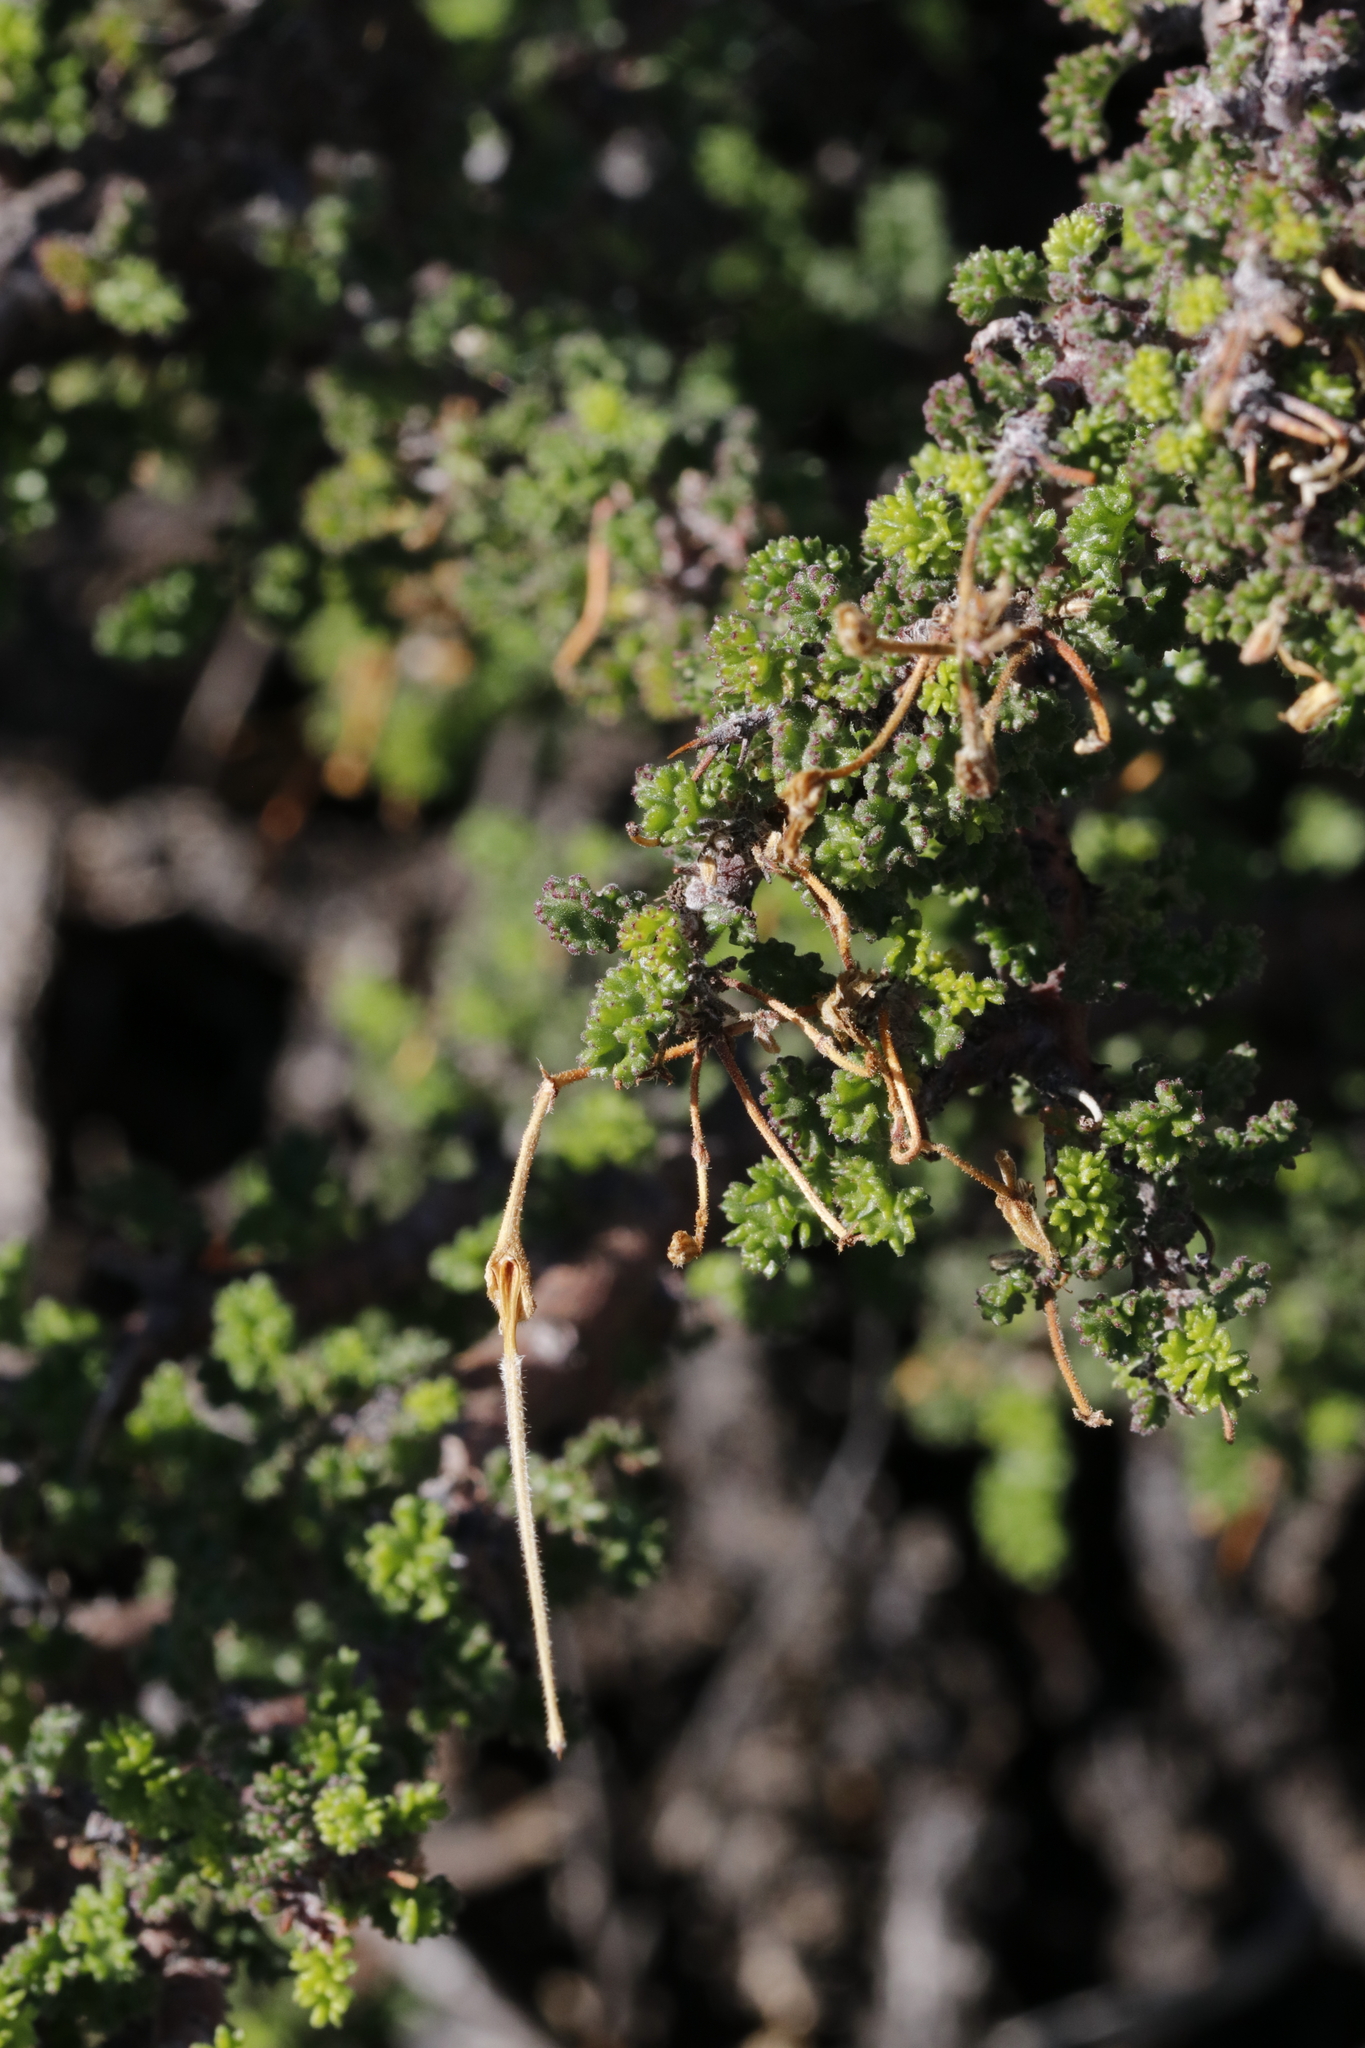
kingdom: Plantae
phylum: Tracheophyta
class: Magnoliopsida
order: Geraniales
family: Geraniaceae
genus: Pelargonium
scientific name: Pelargonium alternans
